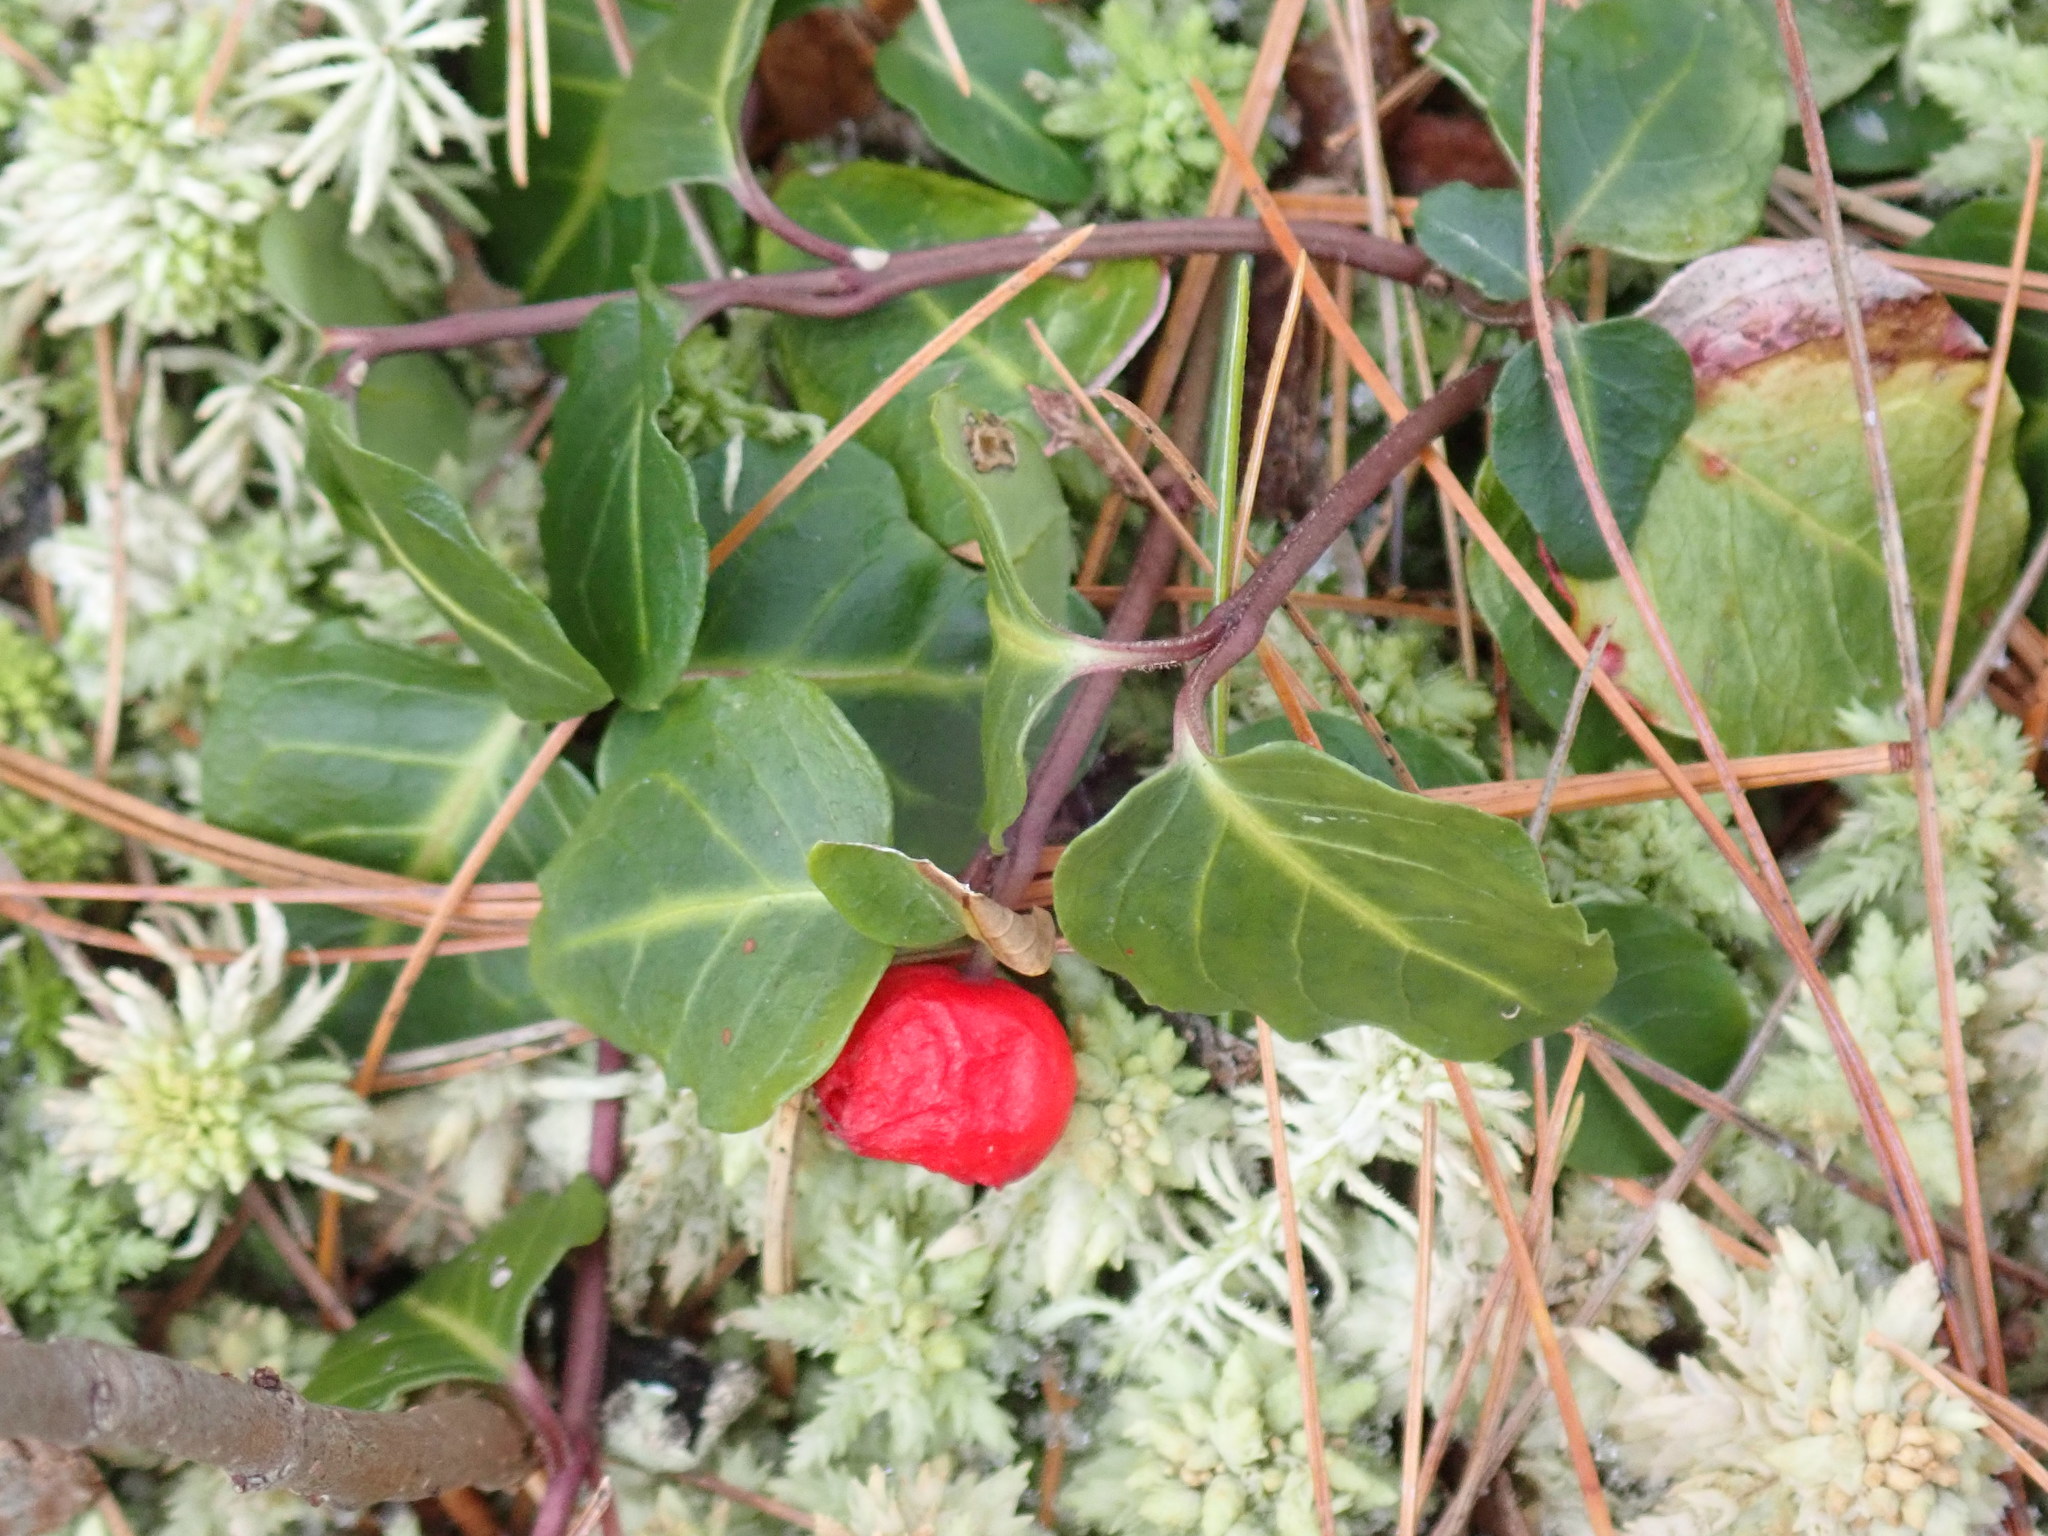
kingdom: Plantae
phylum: Tracheophyta
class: Magnoliopsida
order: Gentianales
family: Rubiaceae
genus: Mitchella
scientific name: Mitchella repens
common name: Partridge-berry
